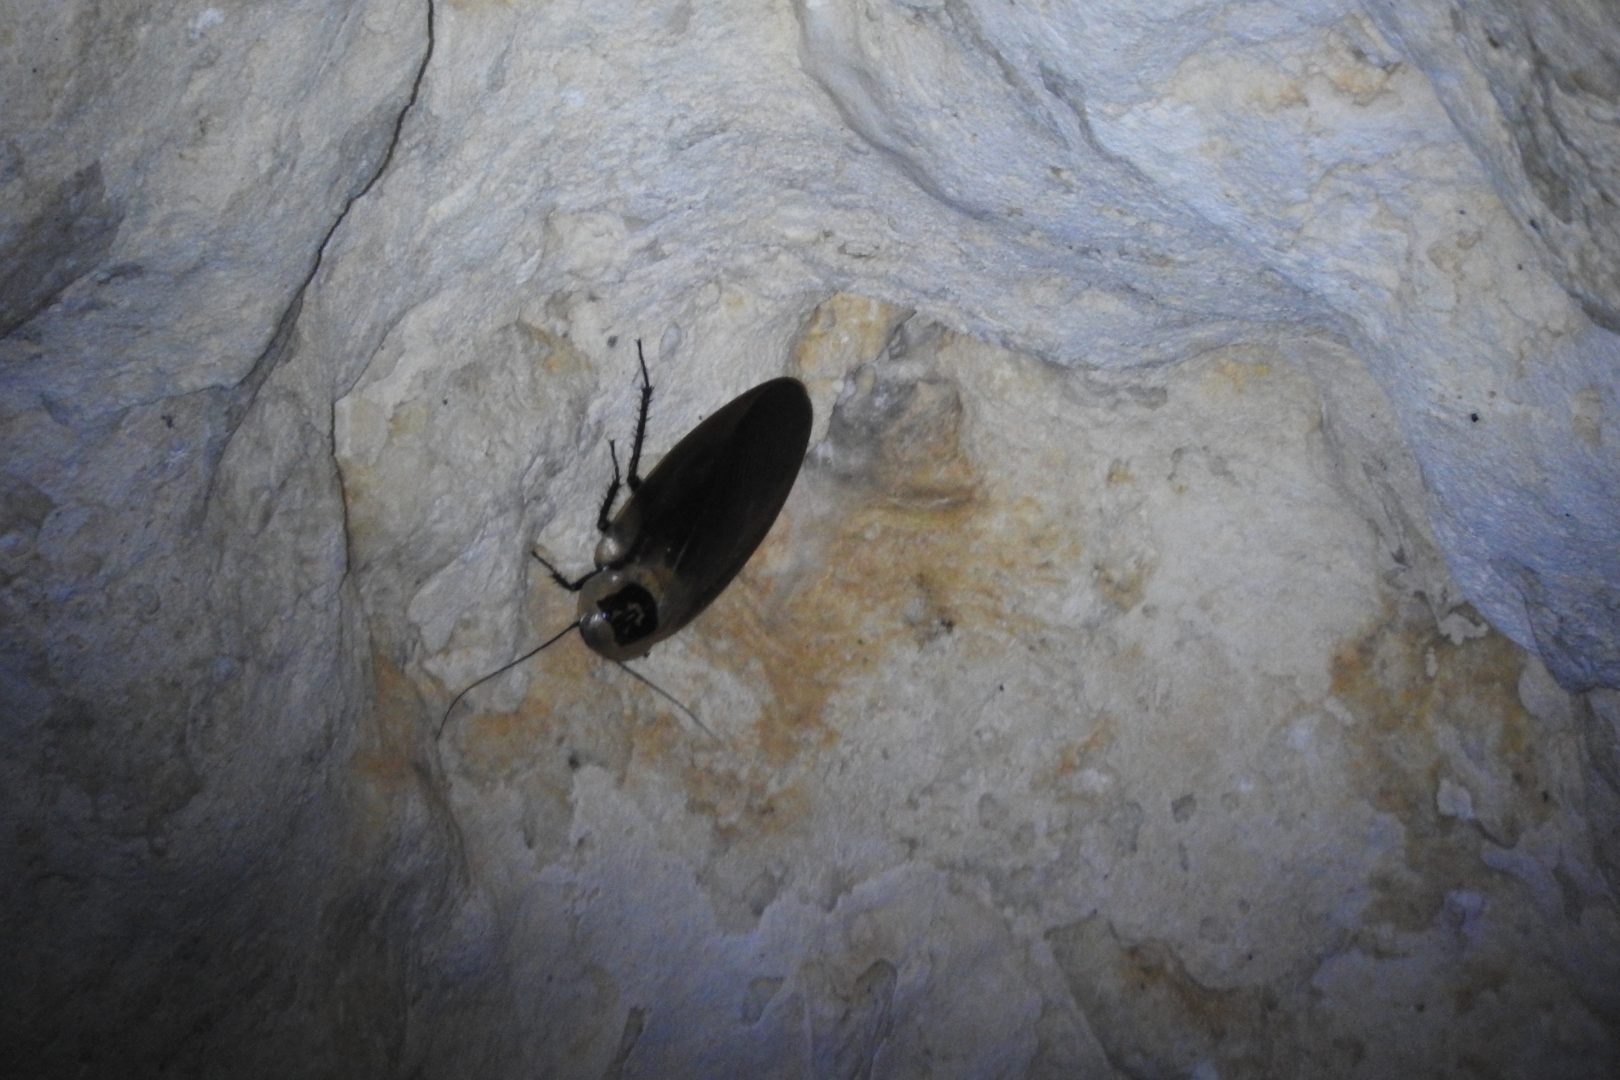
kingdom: Animalia
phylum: Arthropoda
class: Insecta
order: Blattodea
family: Blaberidae
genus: Blaberus
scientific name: Blaberus craniifer
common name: Death's head cockroach
